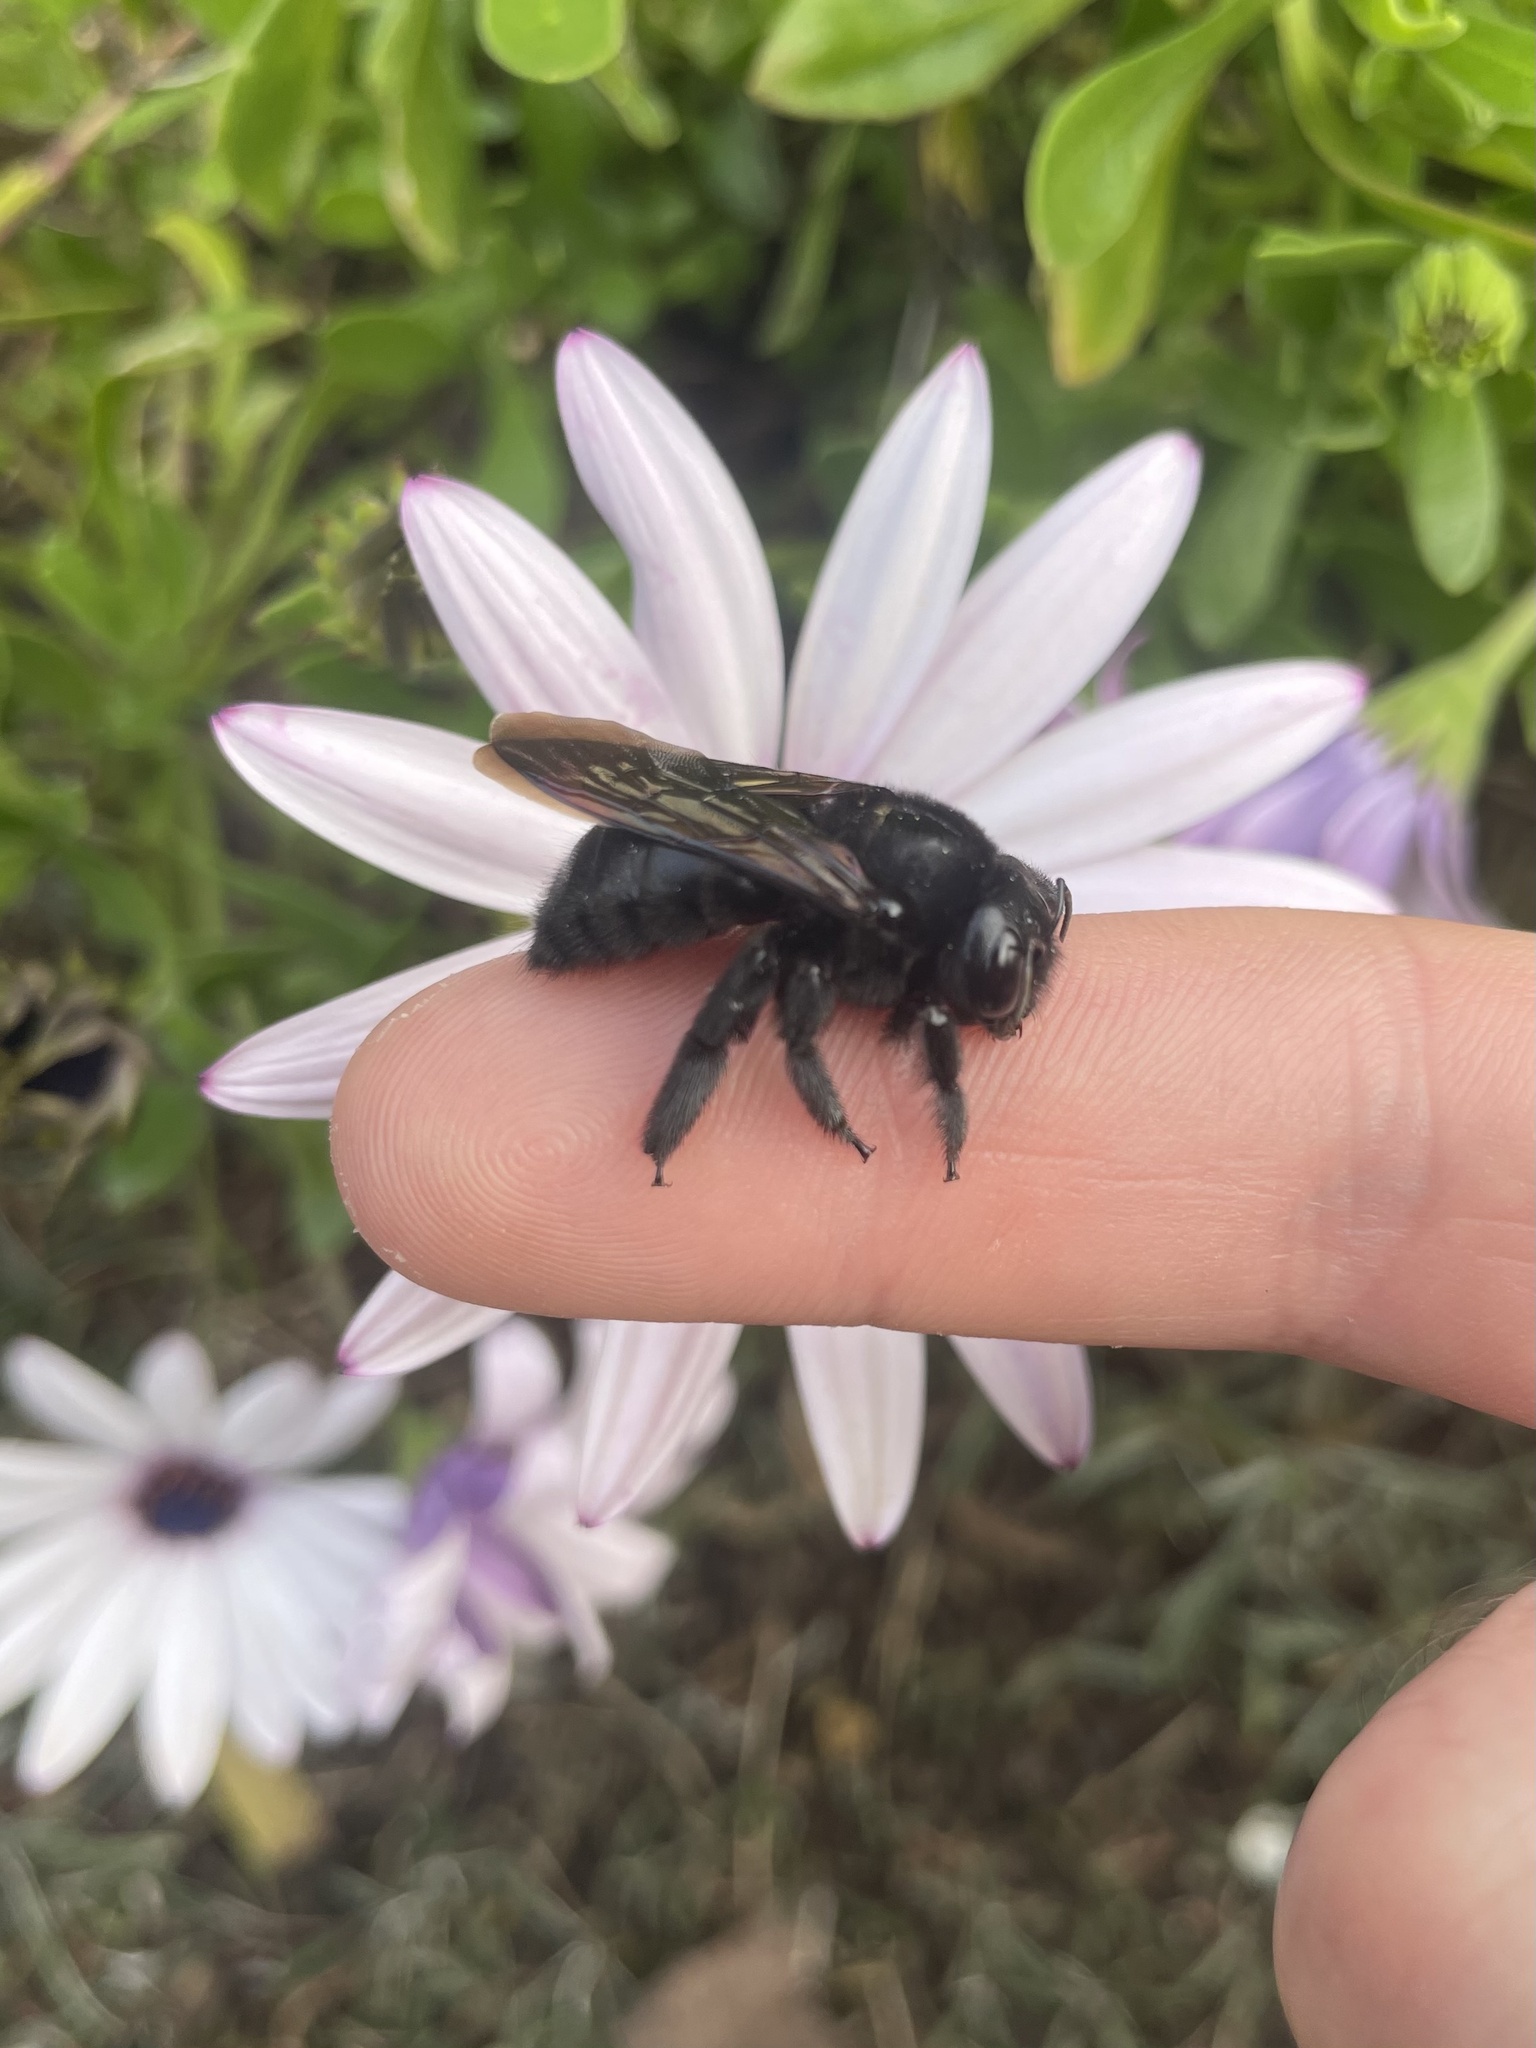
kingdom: Animalia
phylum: Arthropoda
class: Insecta
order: Hymenoptera
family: Apidae
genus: Xylocopa
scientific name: Xylocopa sonorina
